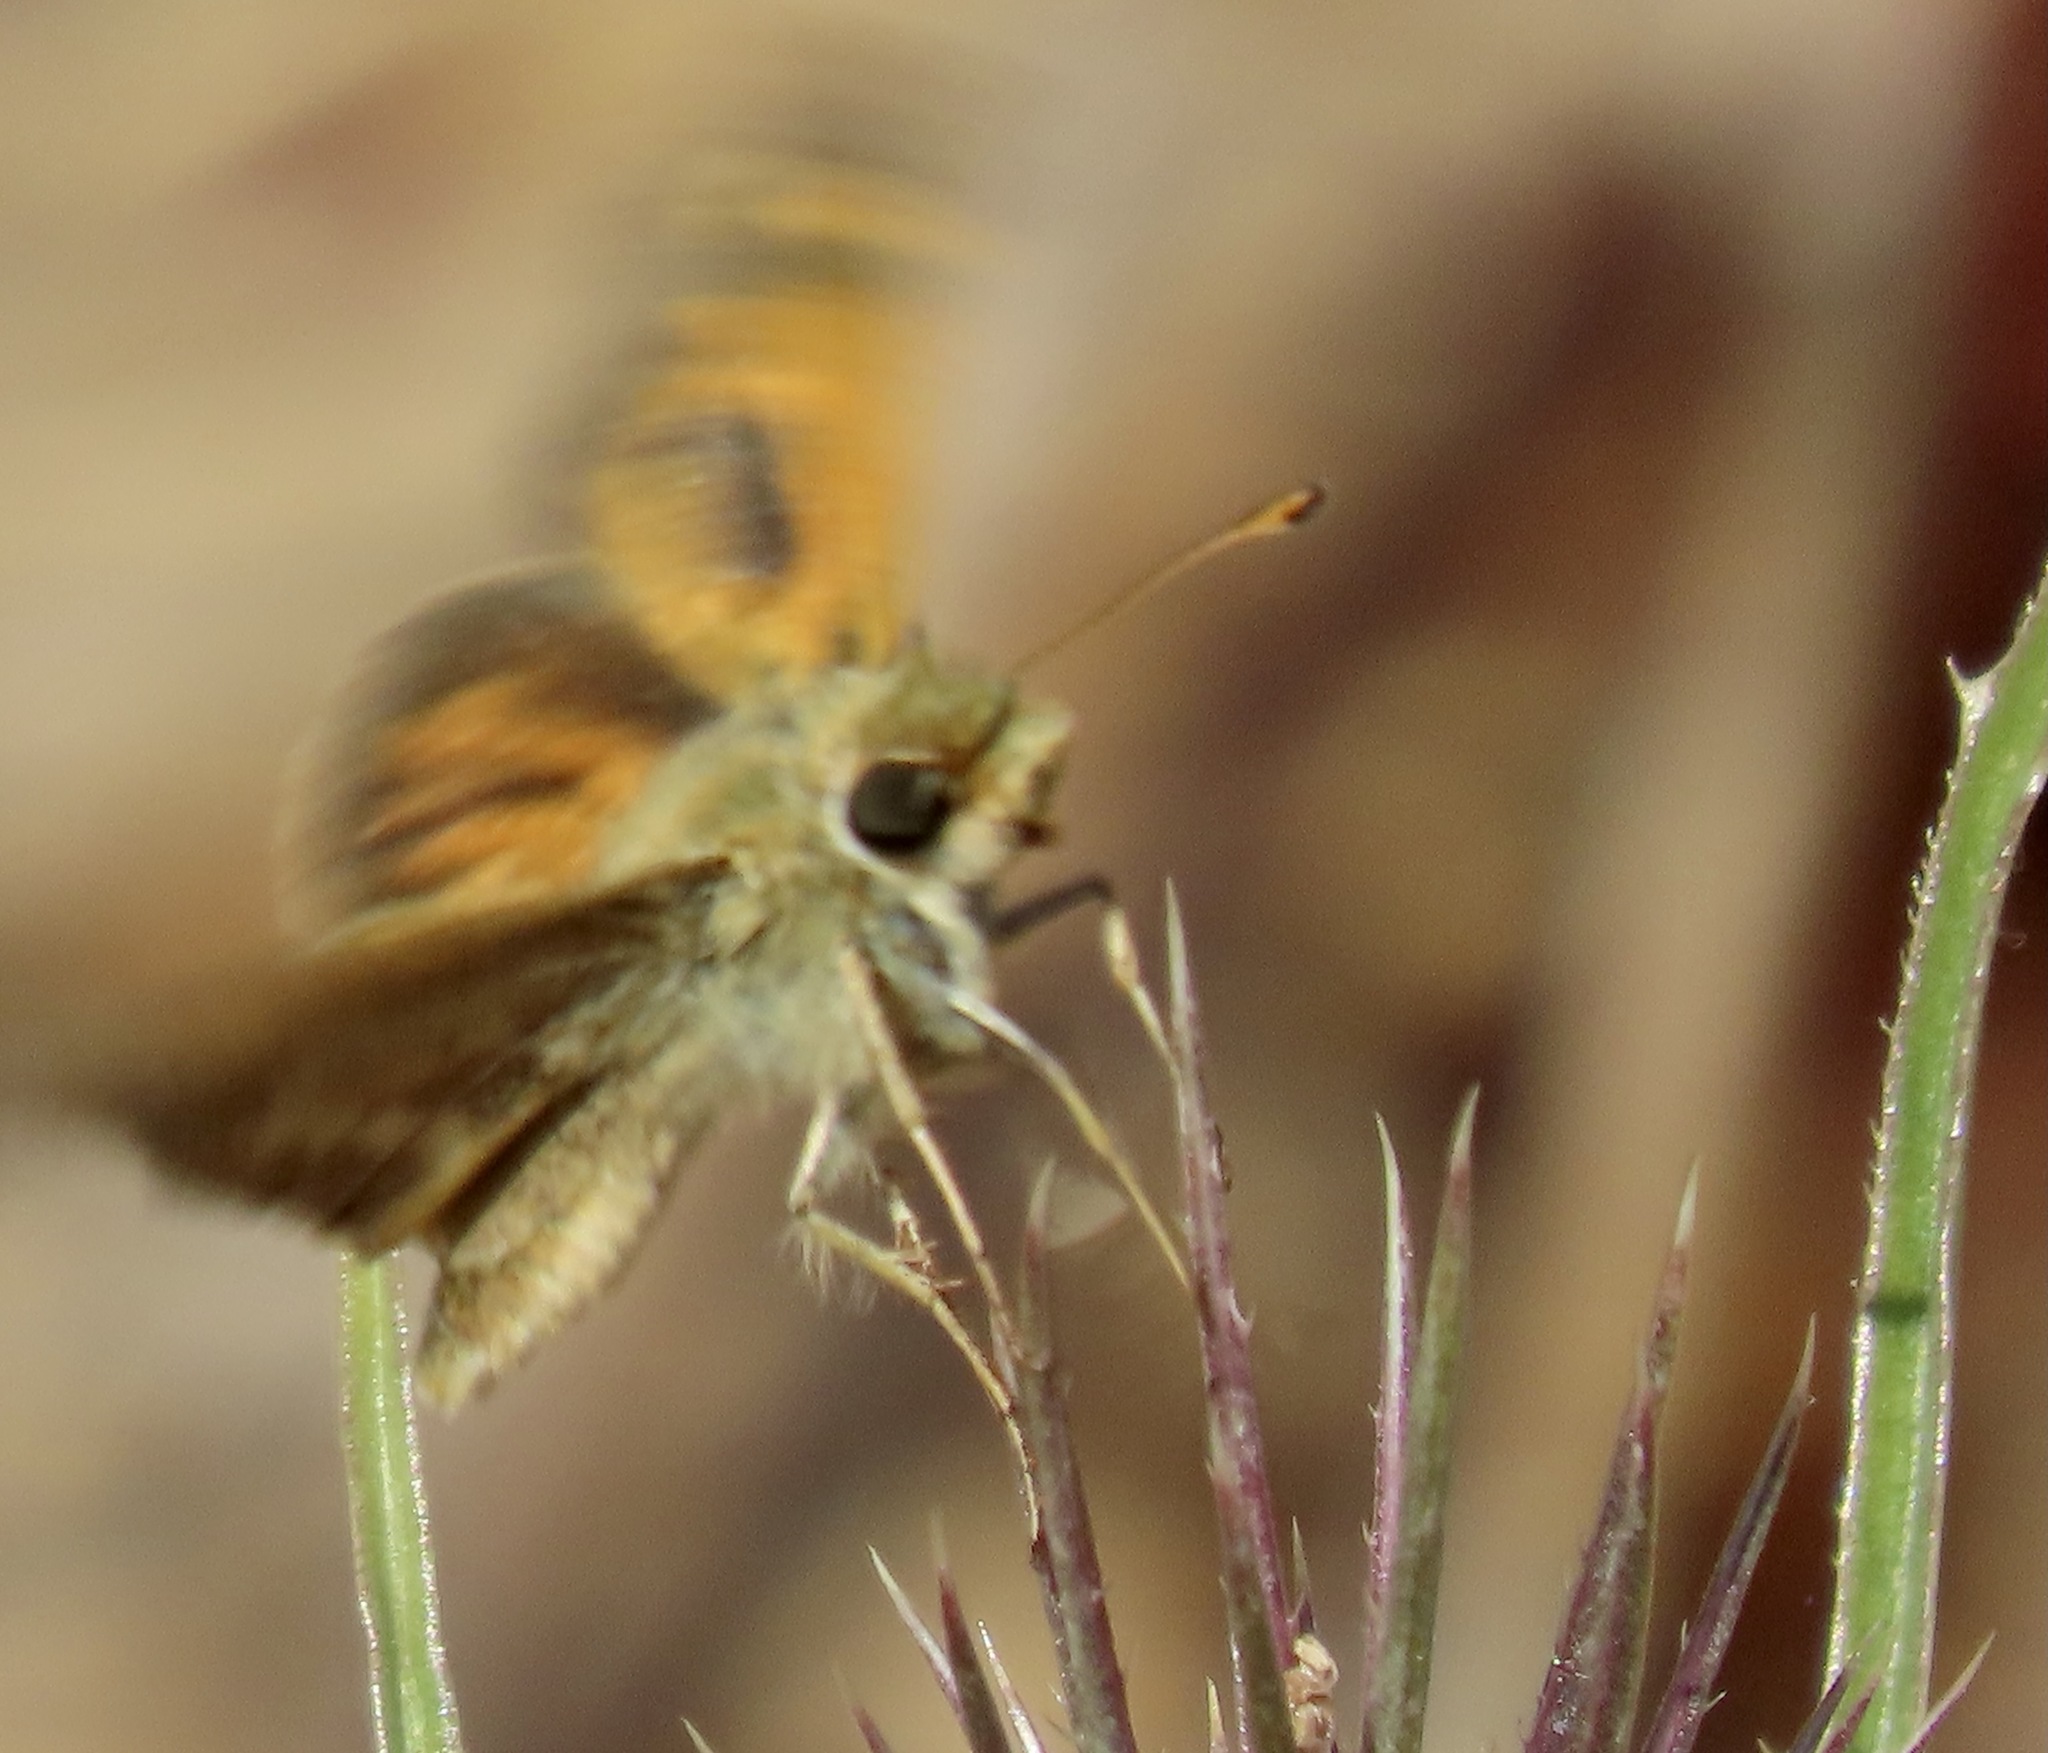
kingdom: Animalia
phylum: Arthropoda
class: Insecta
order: Lepidoptera
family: Hesperiidae
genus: Atalopedes
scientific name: Atalopedes campestris
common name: Sachem
